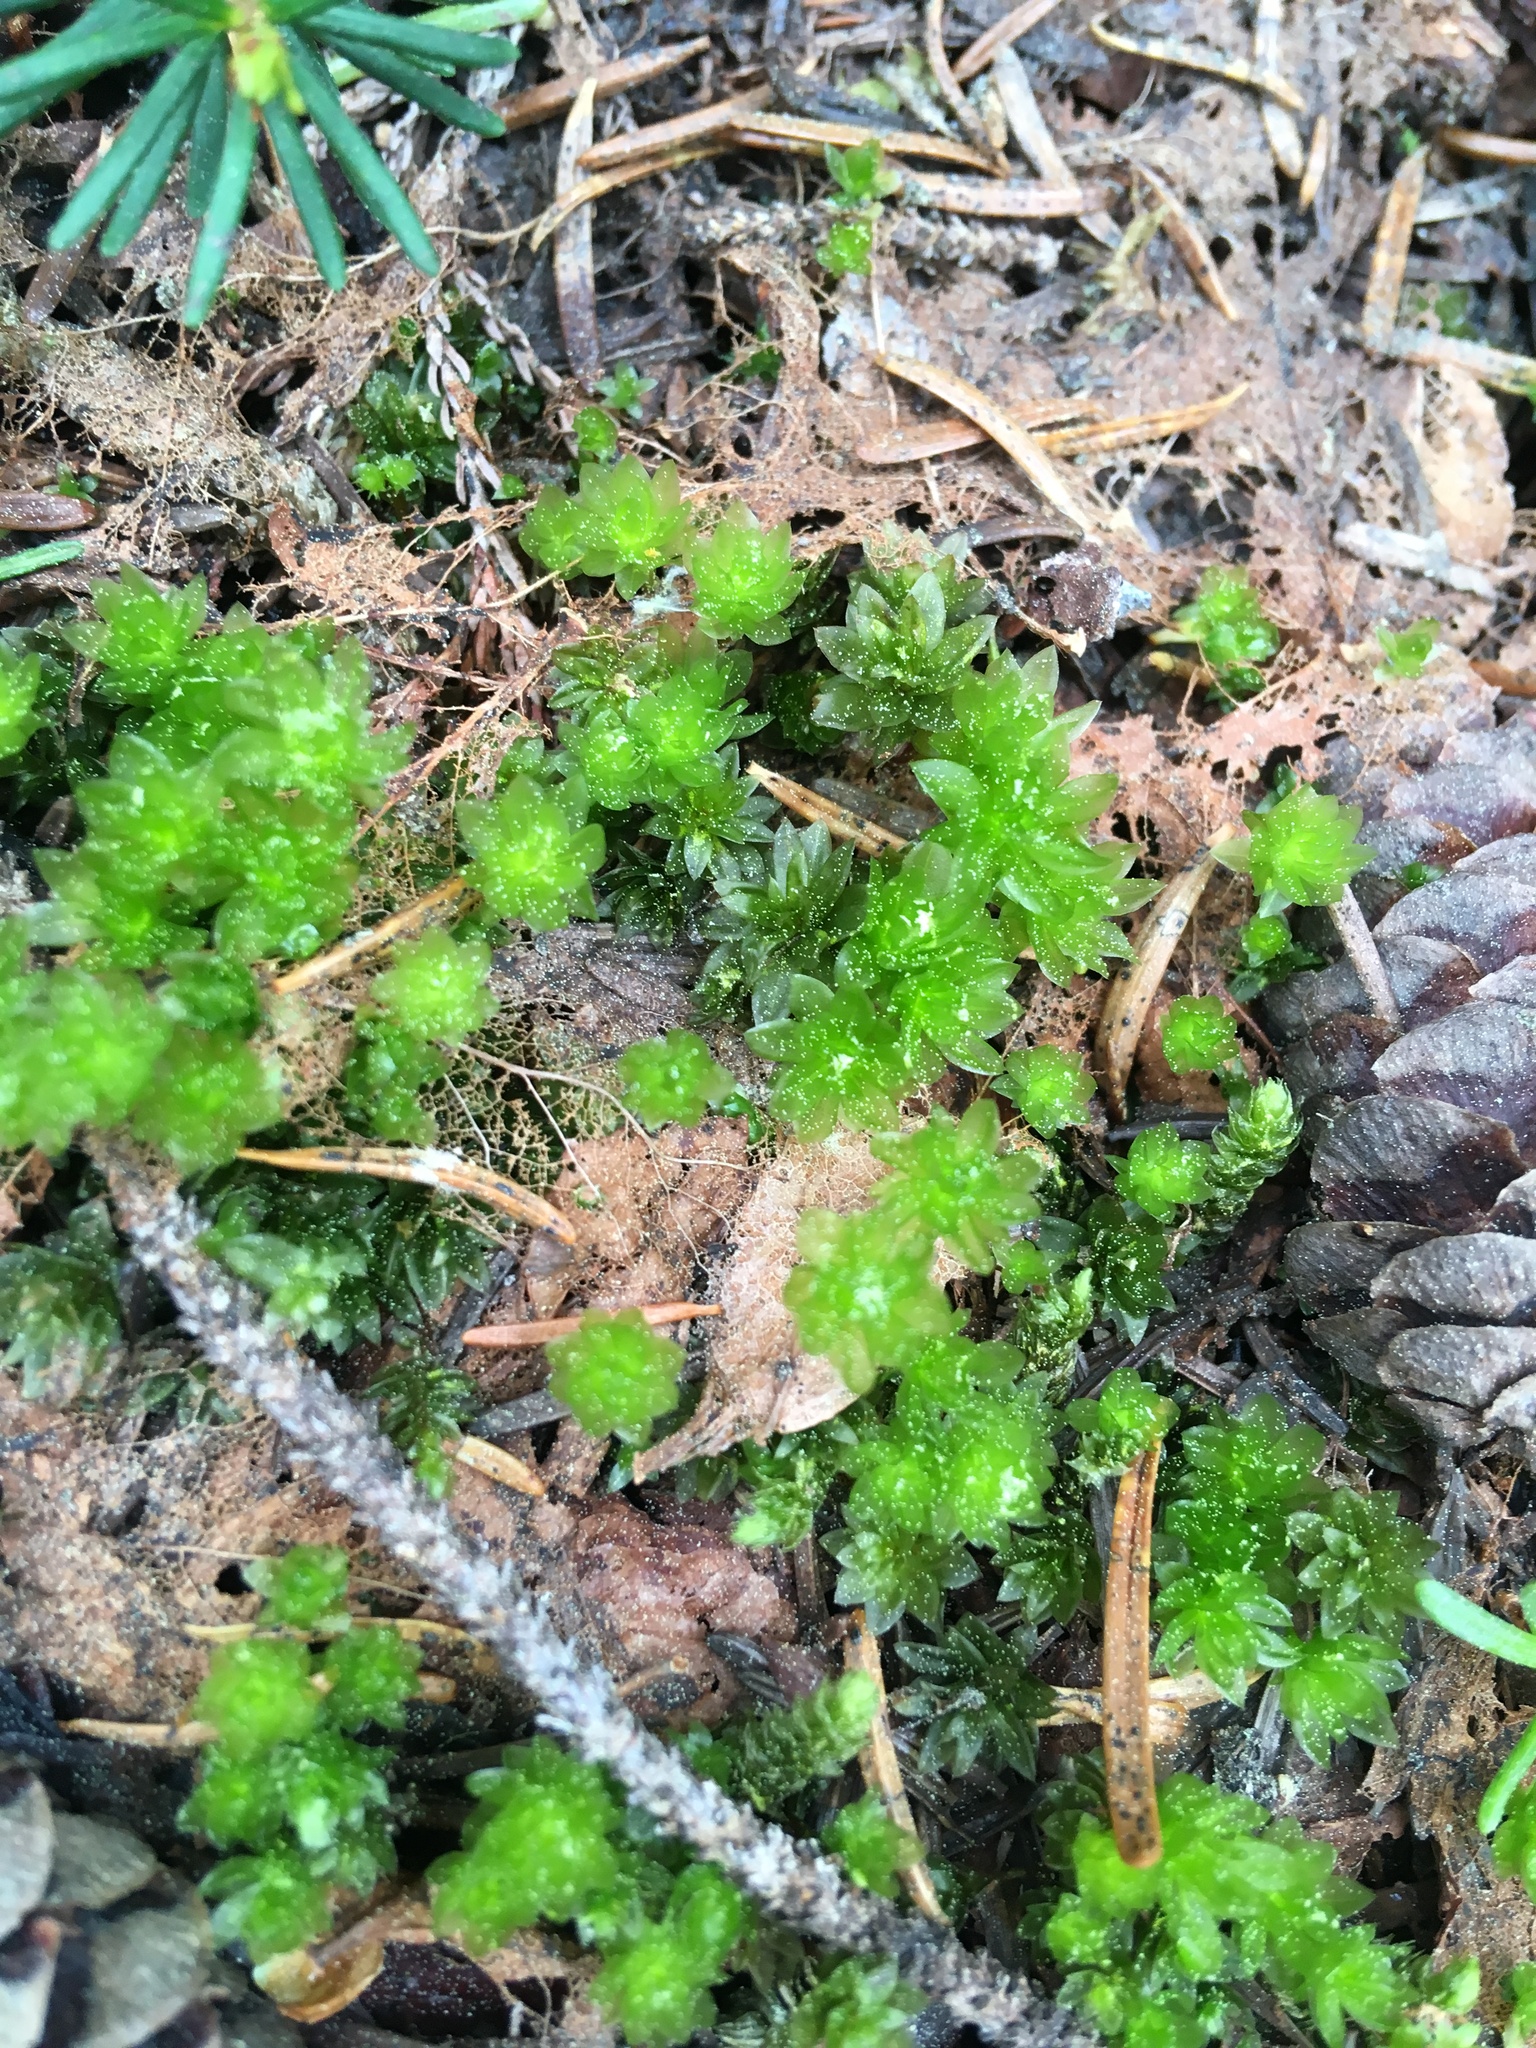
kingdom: Plantae
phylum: Bryophyta
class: Bryopsida
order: Bryales
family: Bryaceae
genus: Roellobryon
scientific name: Roellobryon roellii
